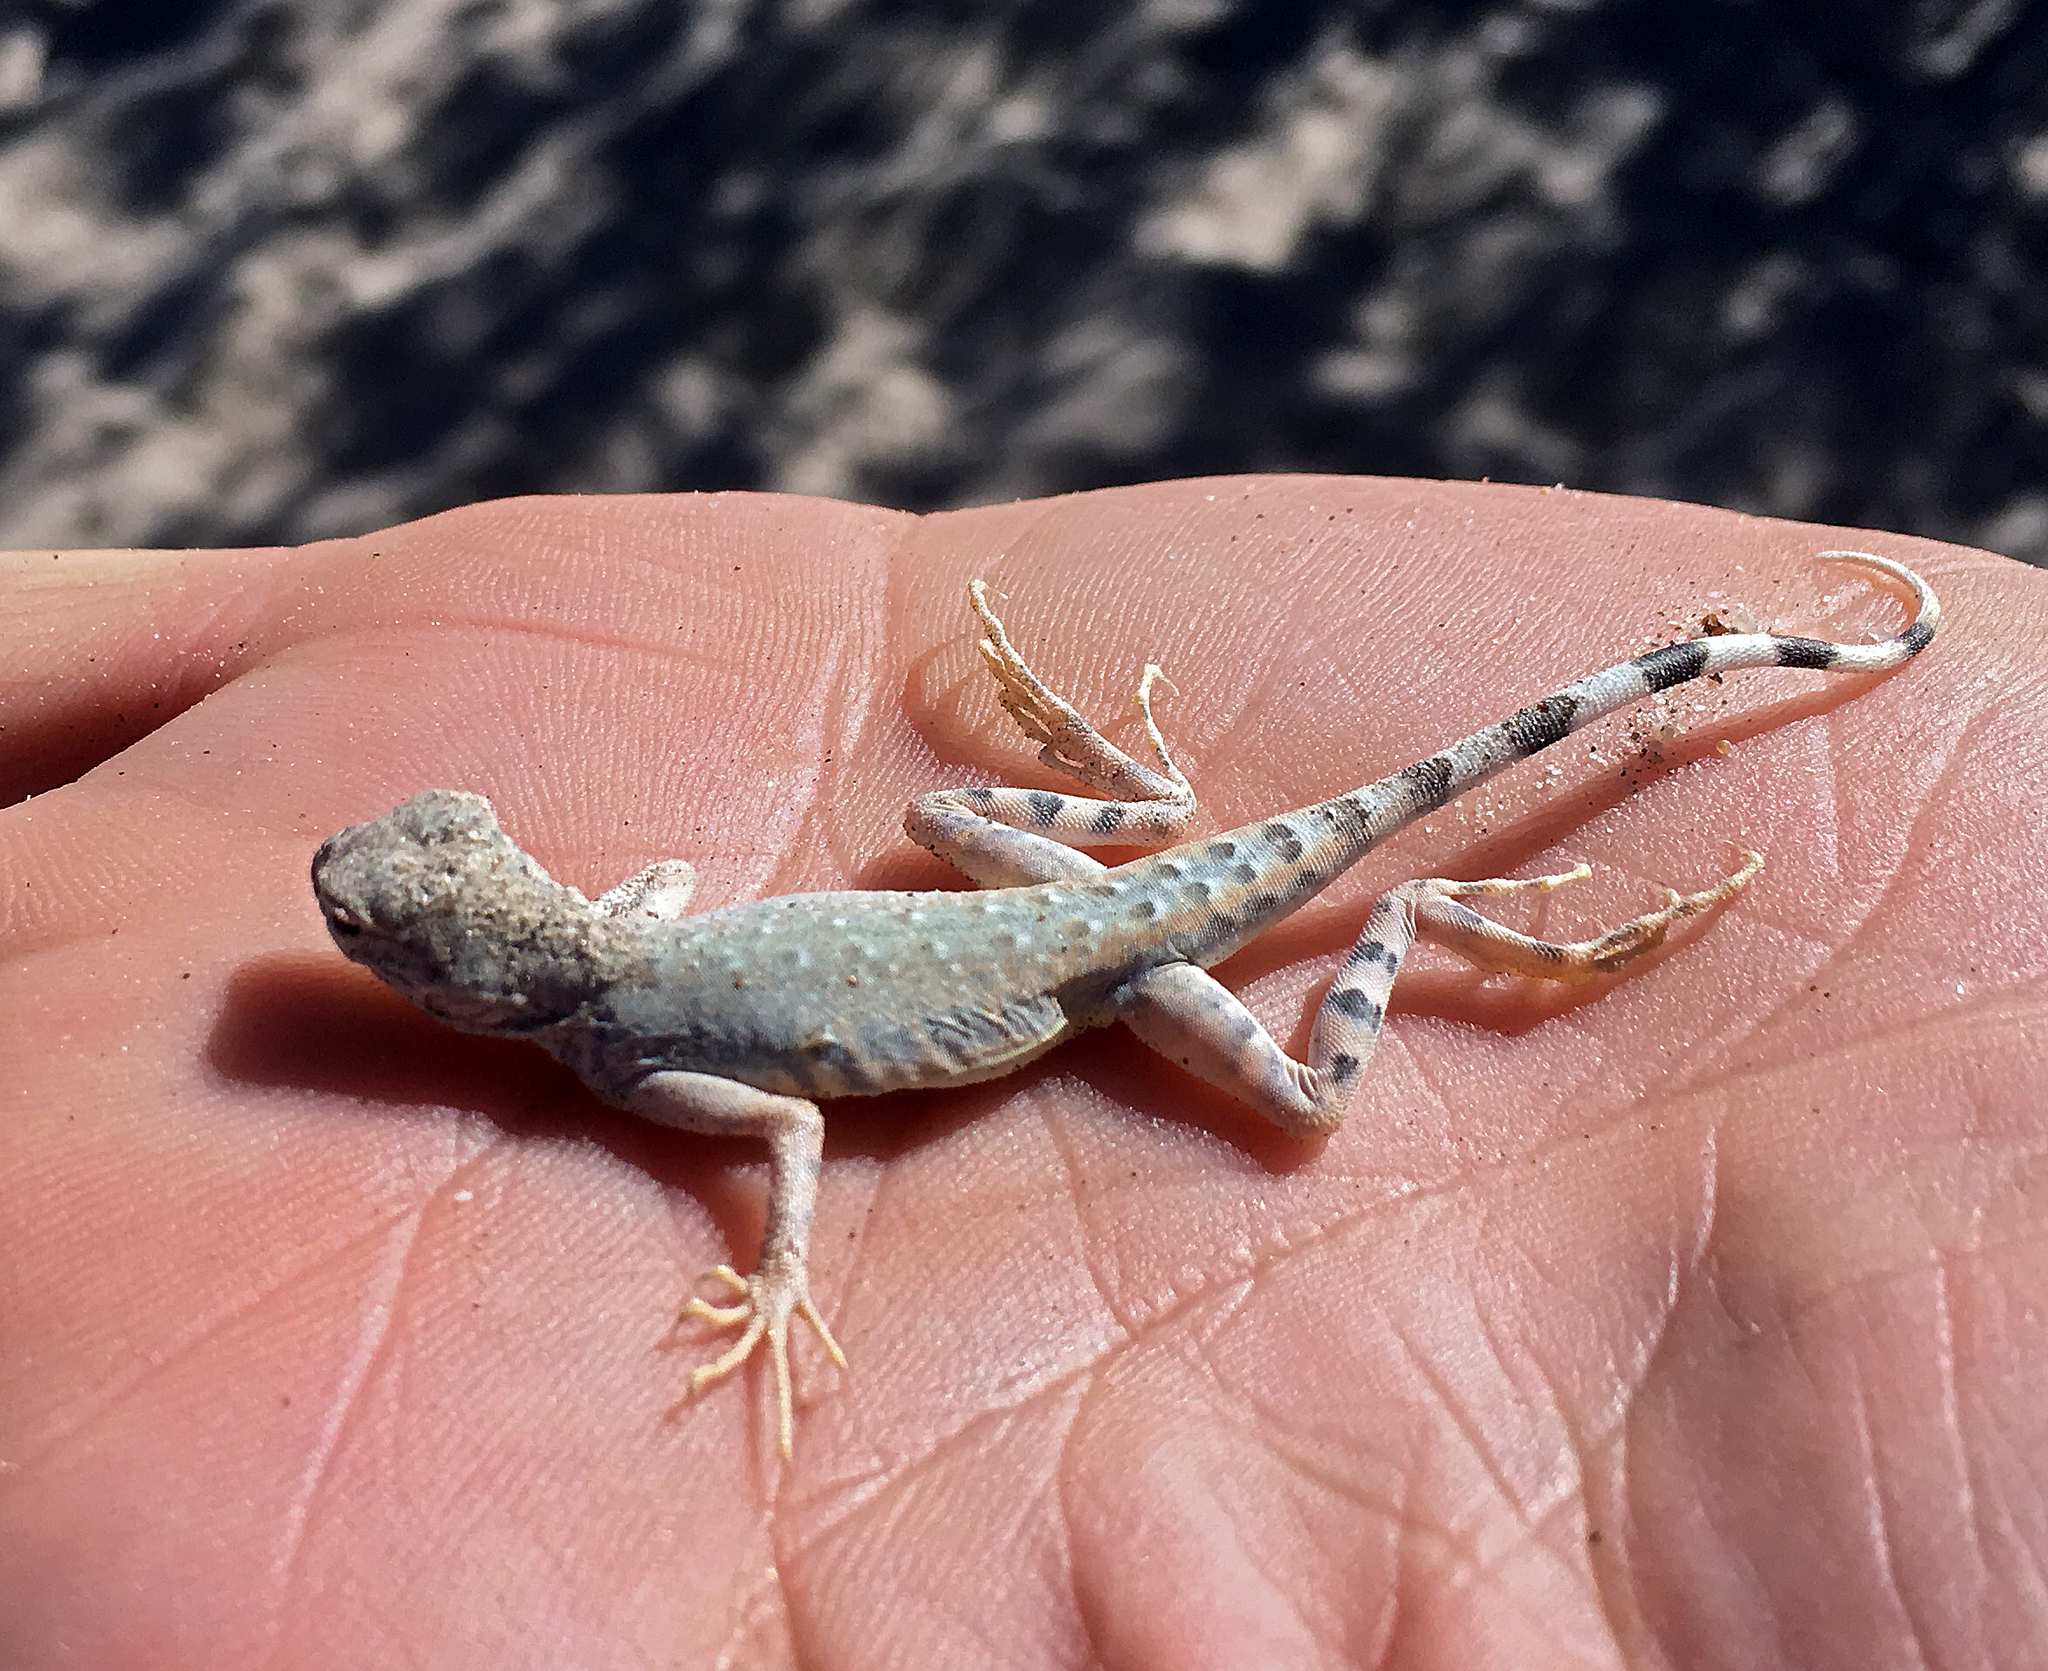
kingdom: Animalia
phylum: Chordata
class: Squamata
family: Phrynosomatidae
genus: Callisaurus
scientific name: Callisaurus draconoides
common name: Zebra-tailed lizard
